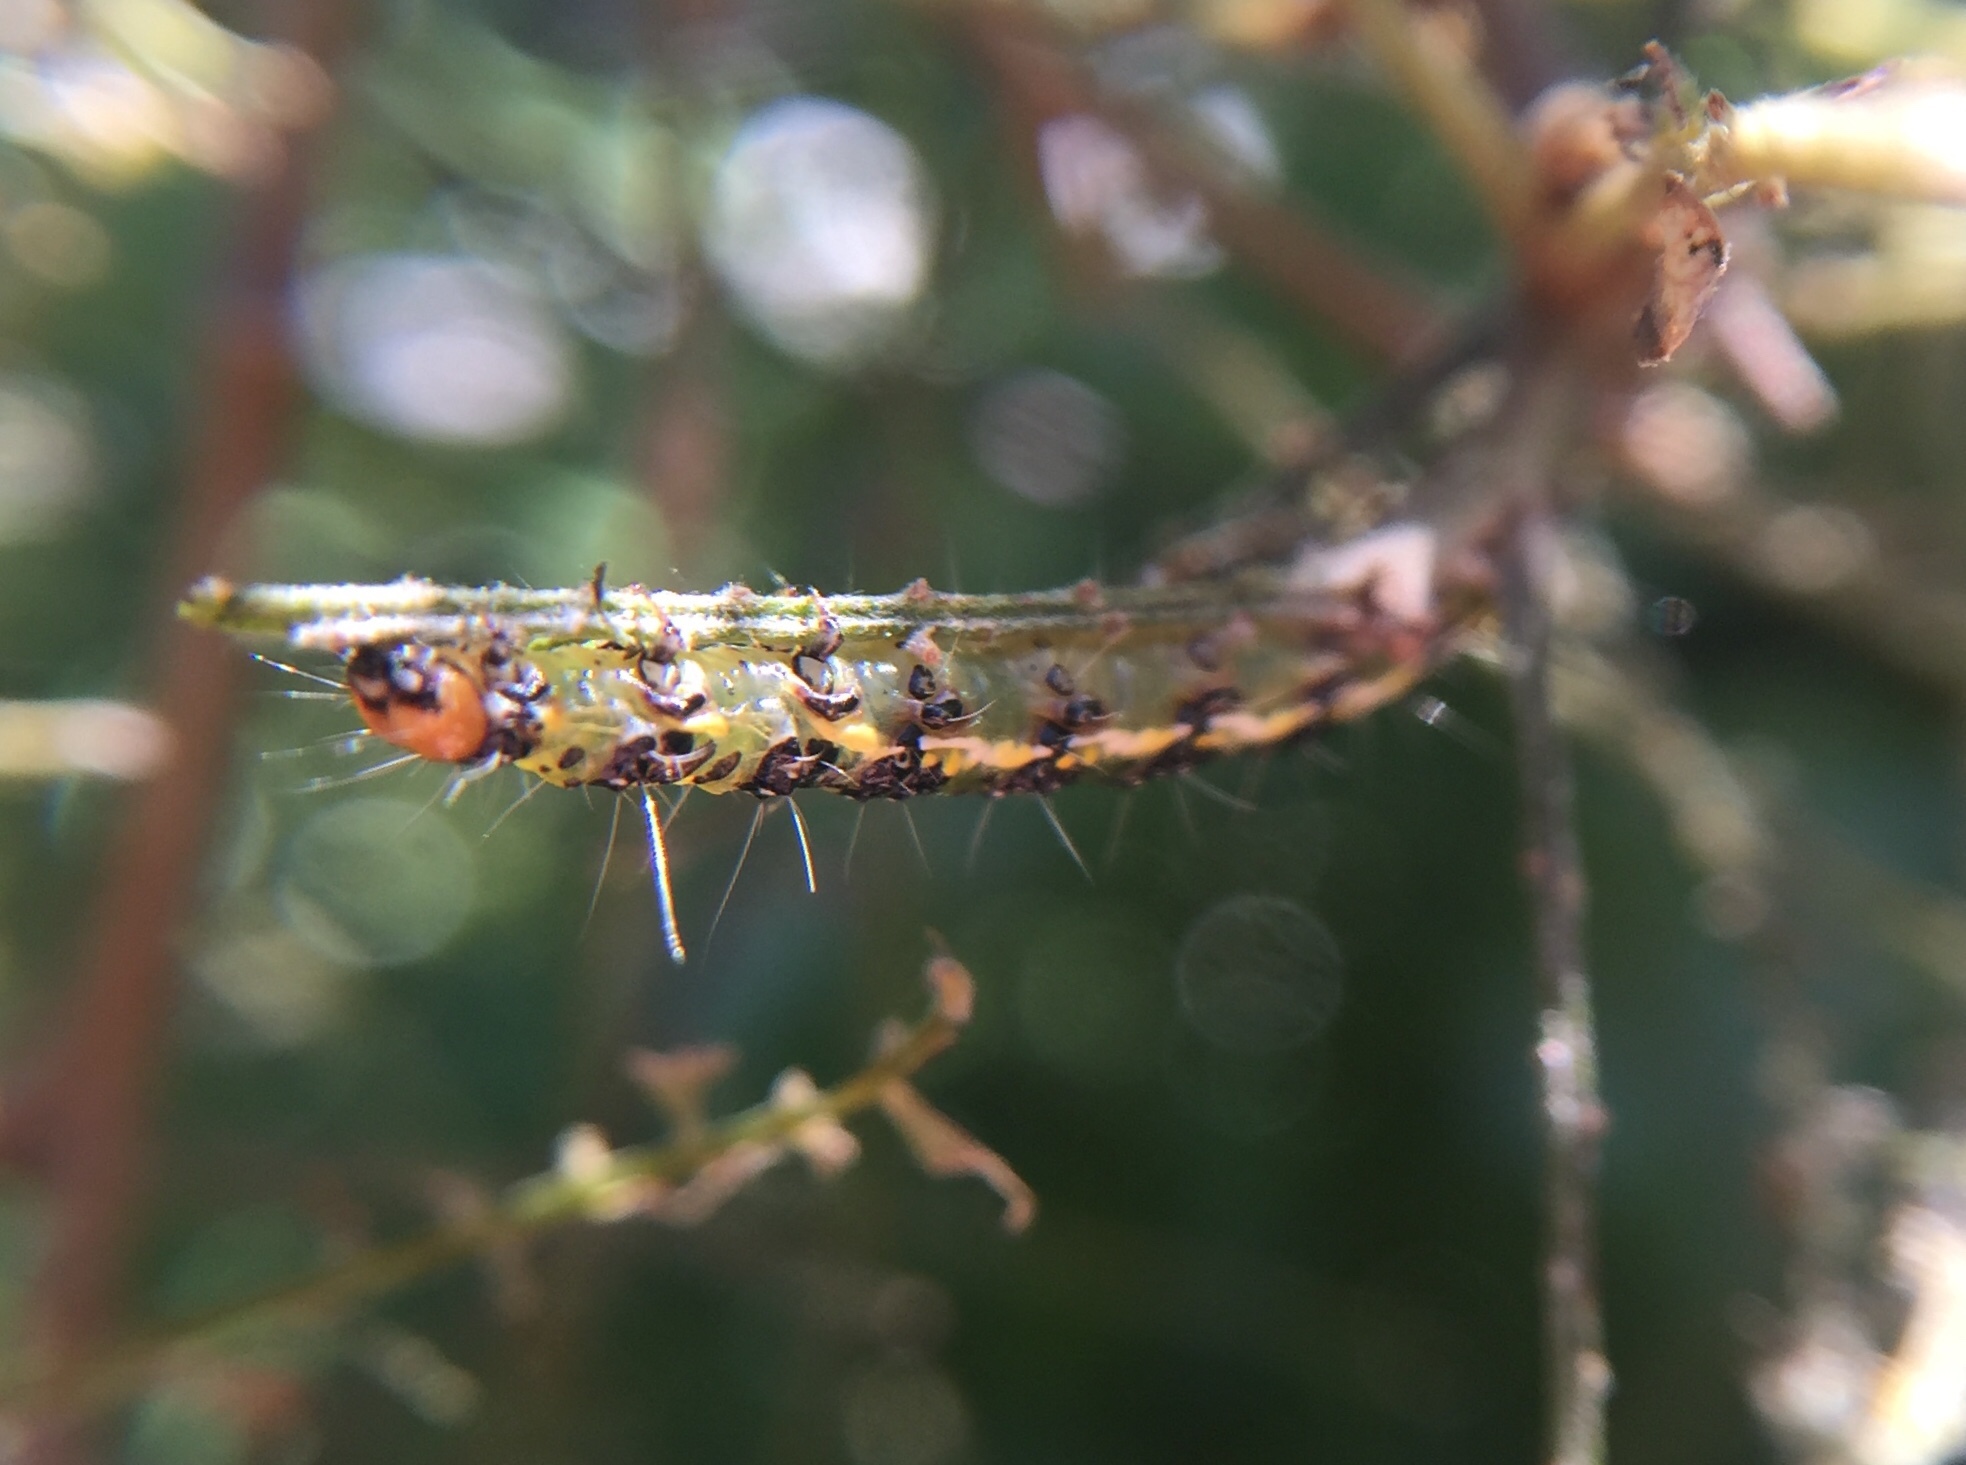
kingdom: Animalia
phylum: Arthropoda
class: Insecta
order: Lepidoptera
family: Crambidae
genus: Uresiphita
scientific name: Uresiphita
